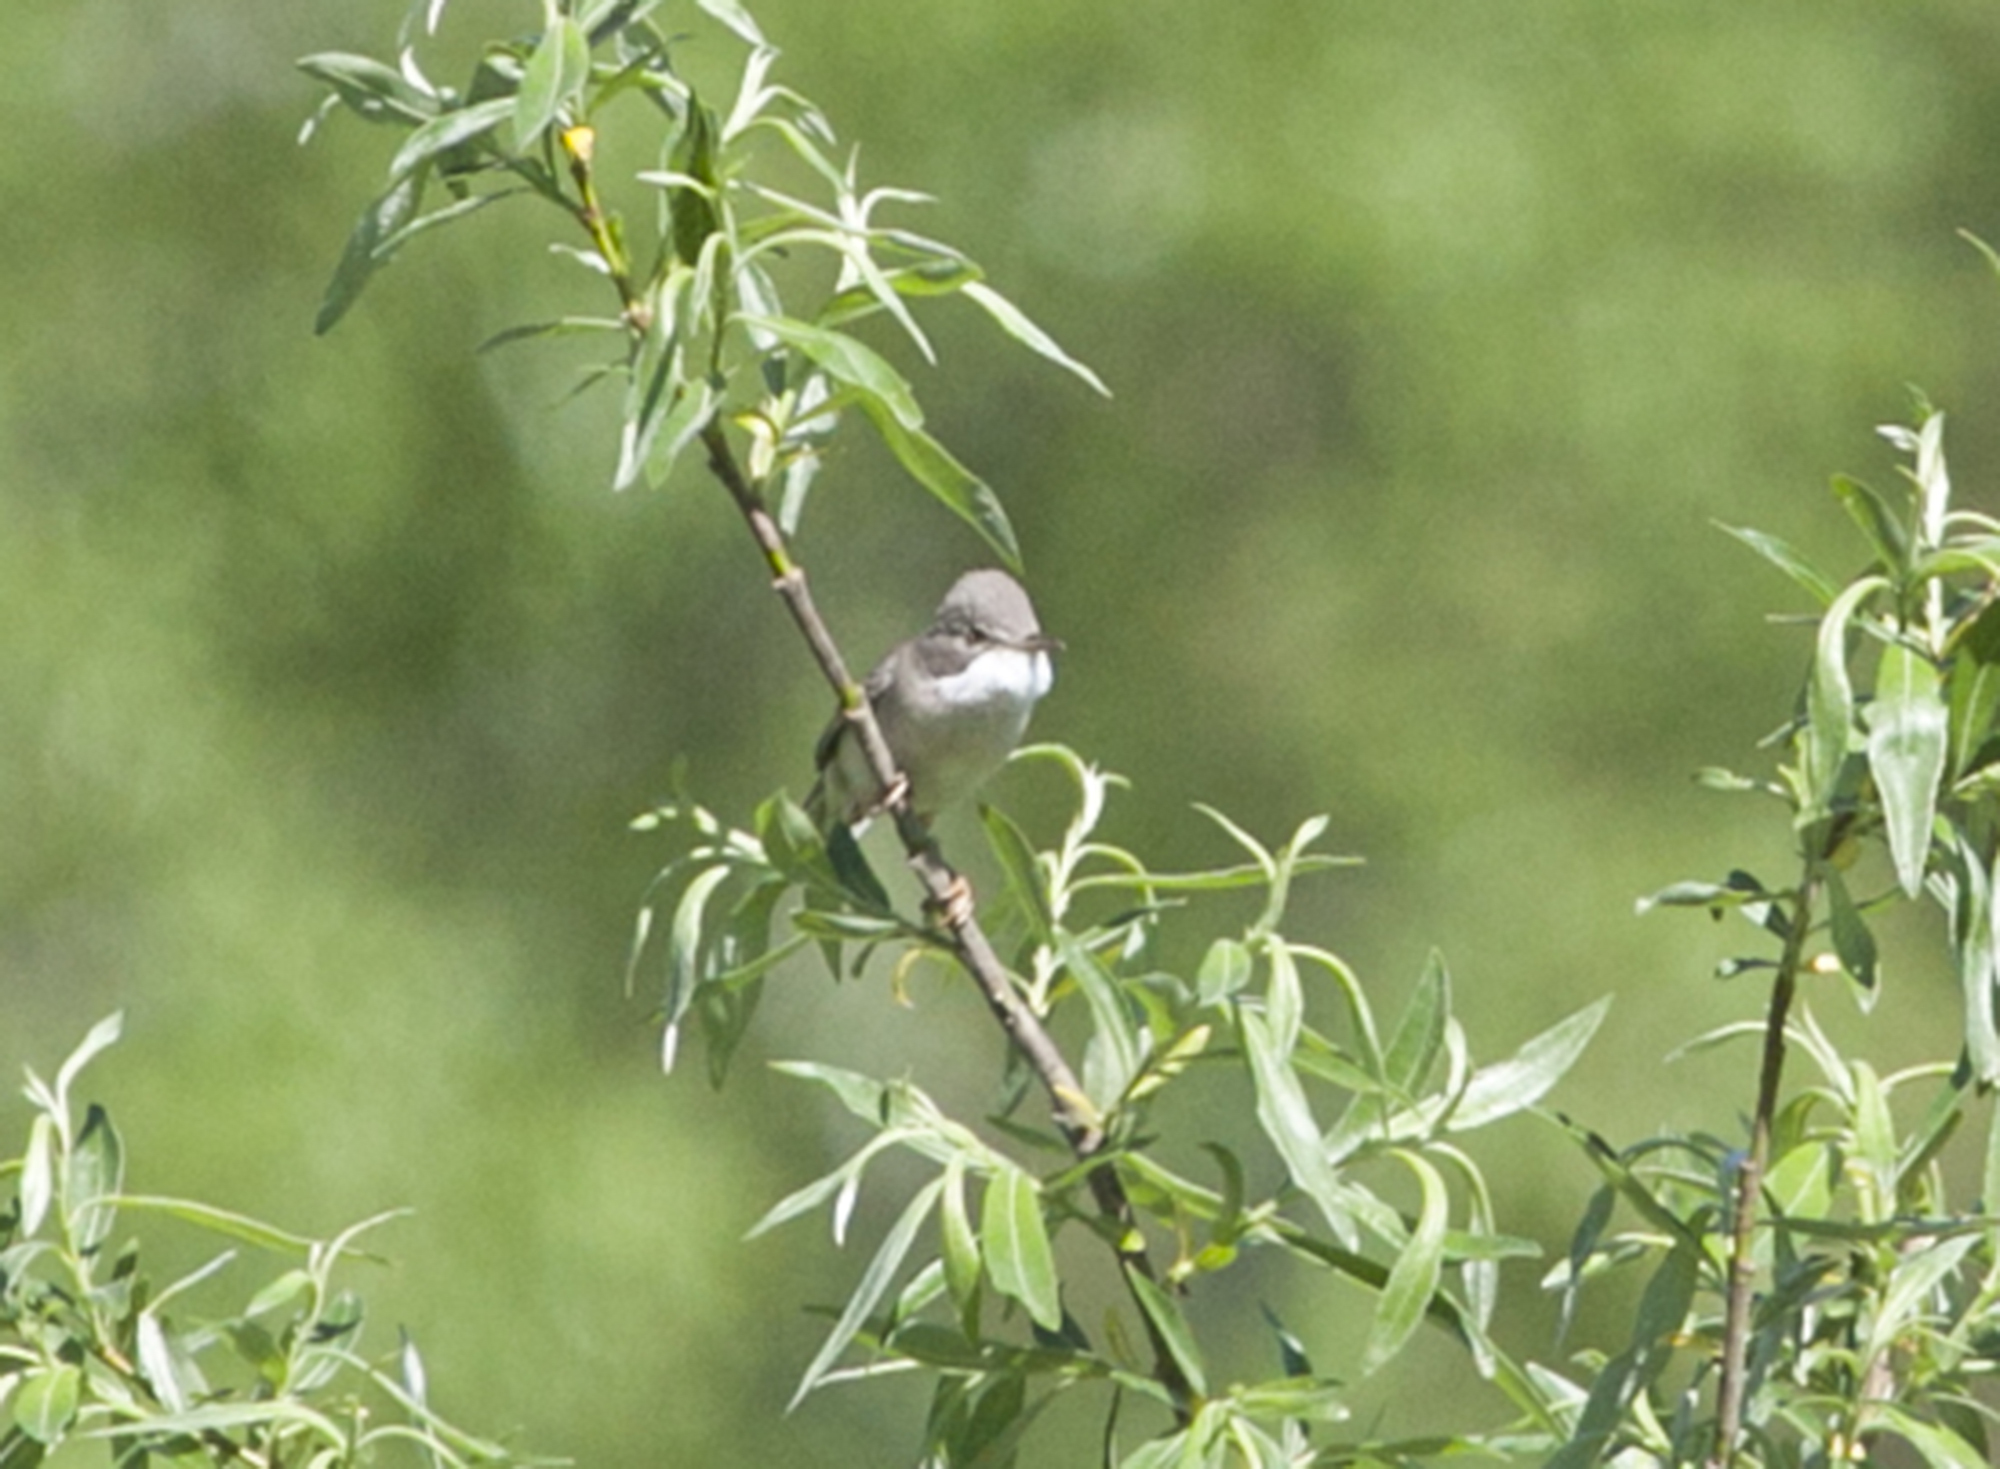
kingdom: Animalia
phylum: Chordata
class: Aves
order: Passeriformes
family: Sylviidae
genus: Sylvia
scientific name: Sylvia communis
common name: Common whitethroat
